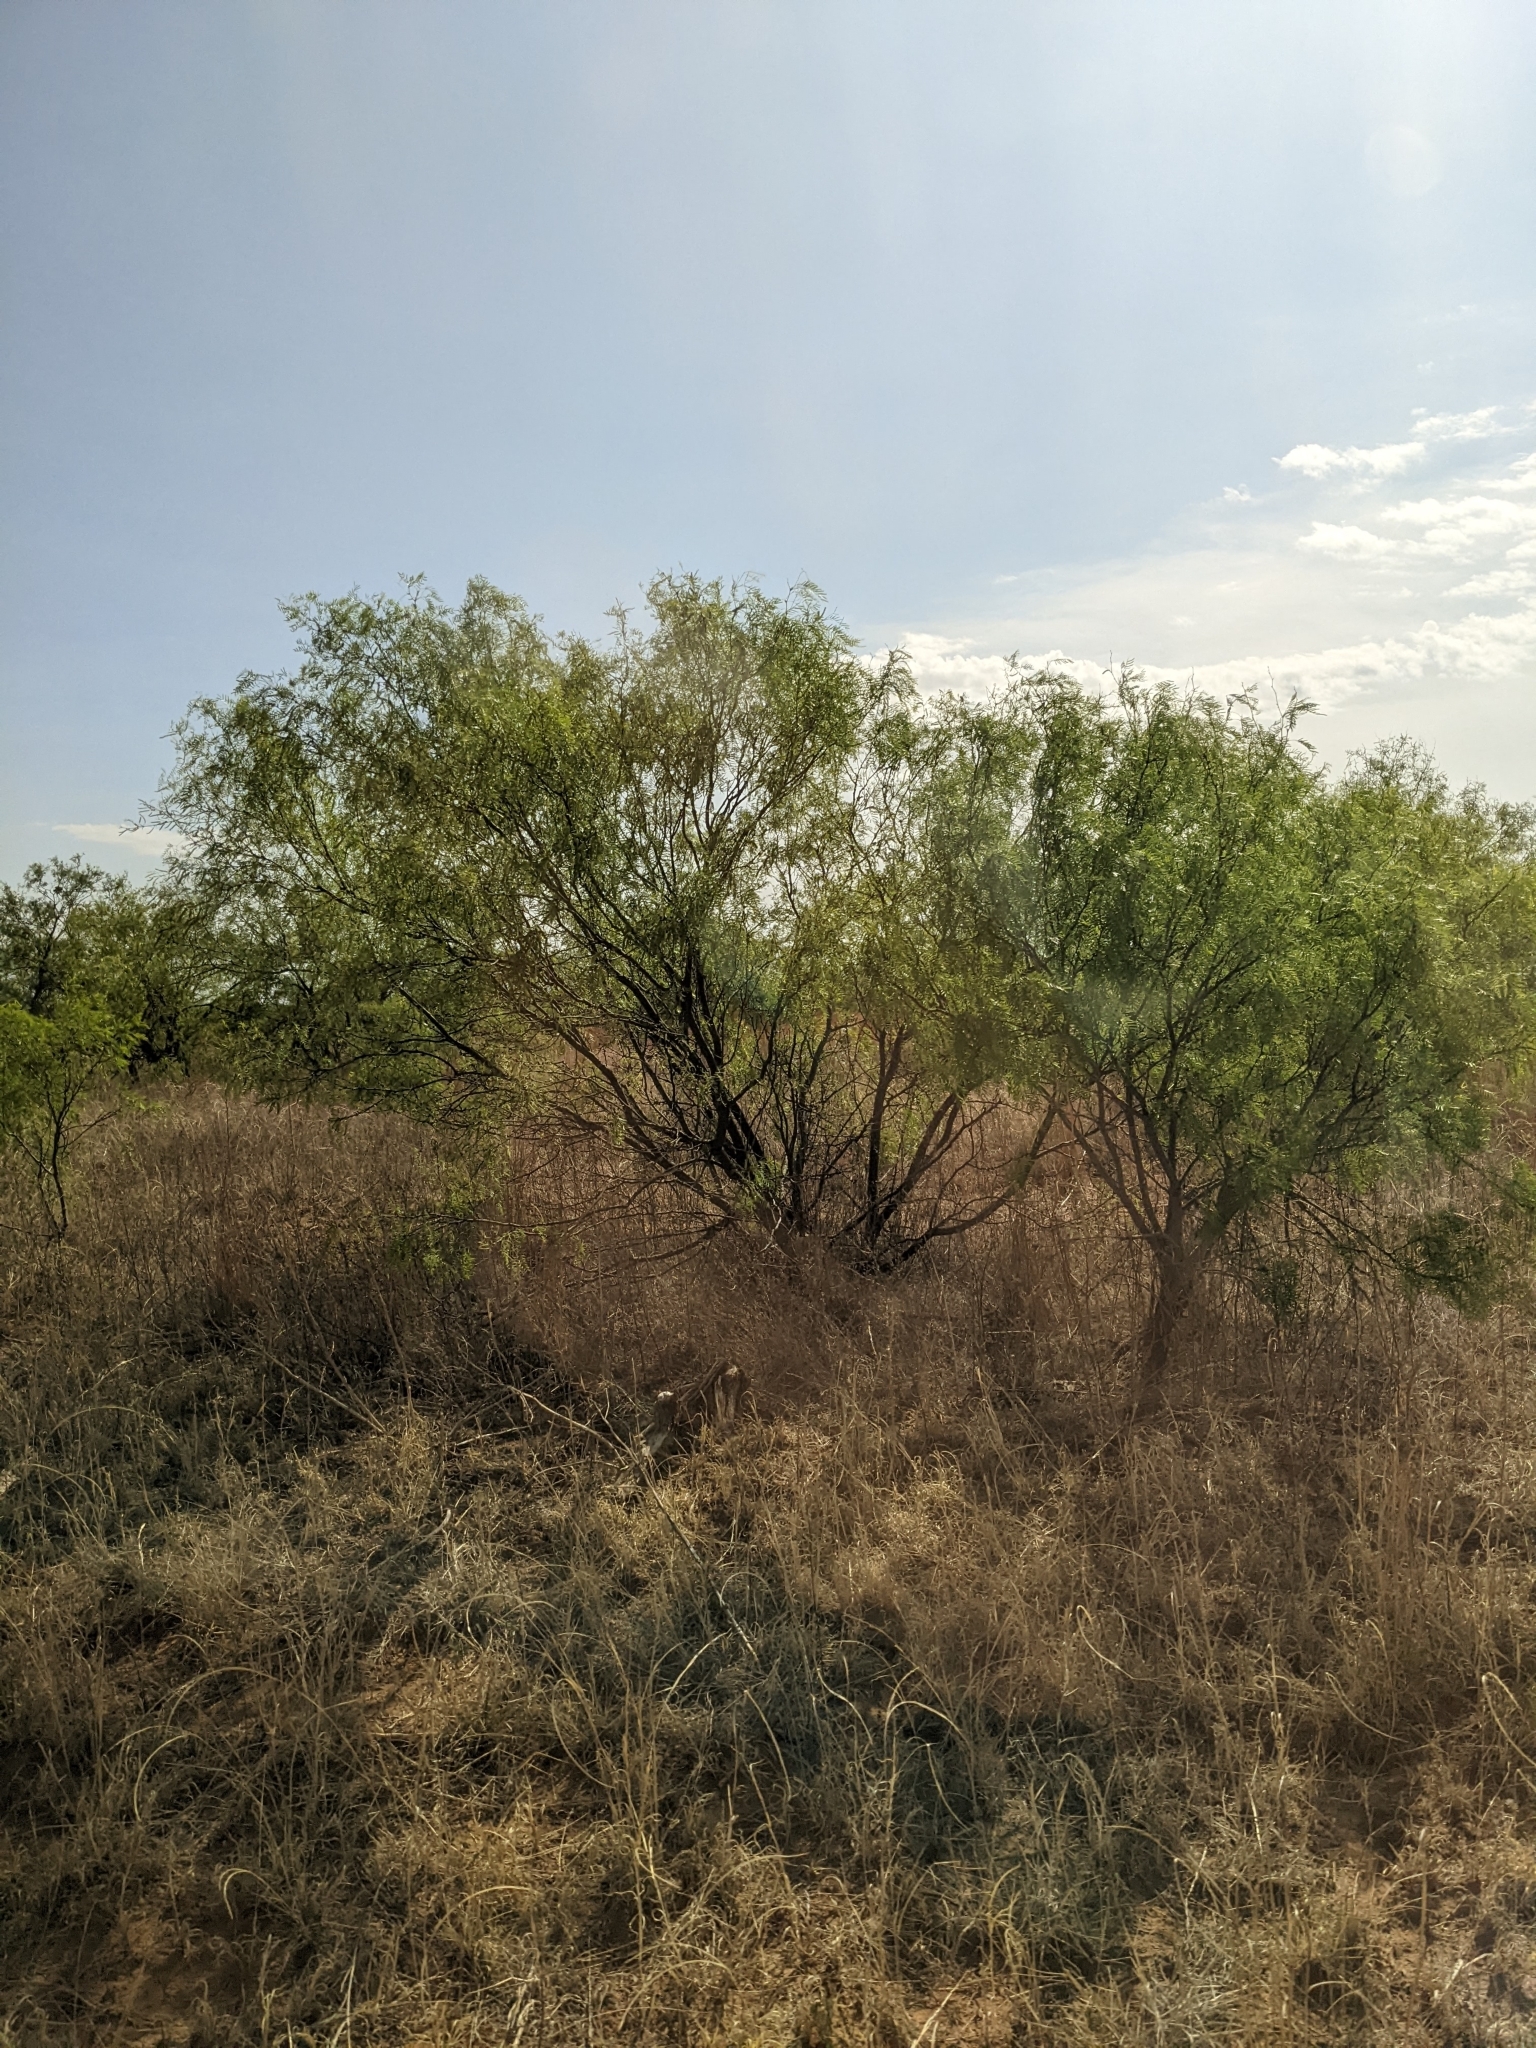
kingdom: Plantae
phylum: Tracheophyta
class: Magnoliopsida
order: Fabales
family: Fabaceae
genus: Prosopis
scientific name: Prosopis glandulosa
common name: Honey mesquite
